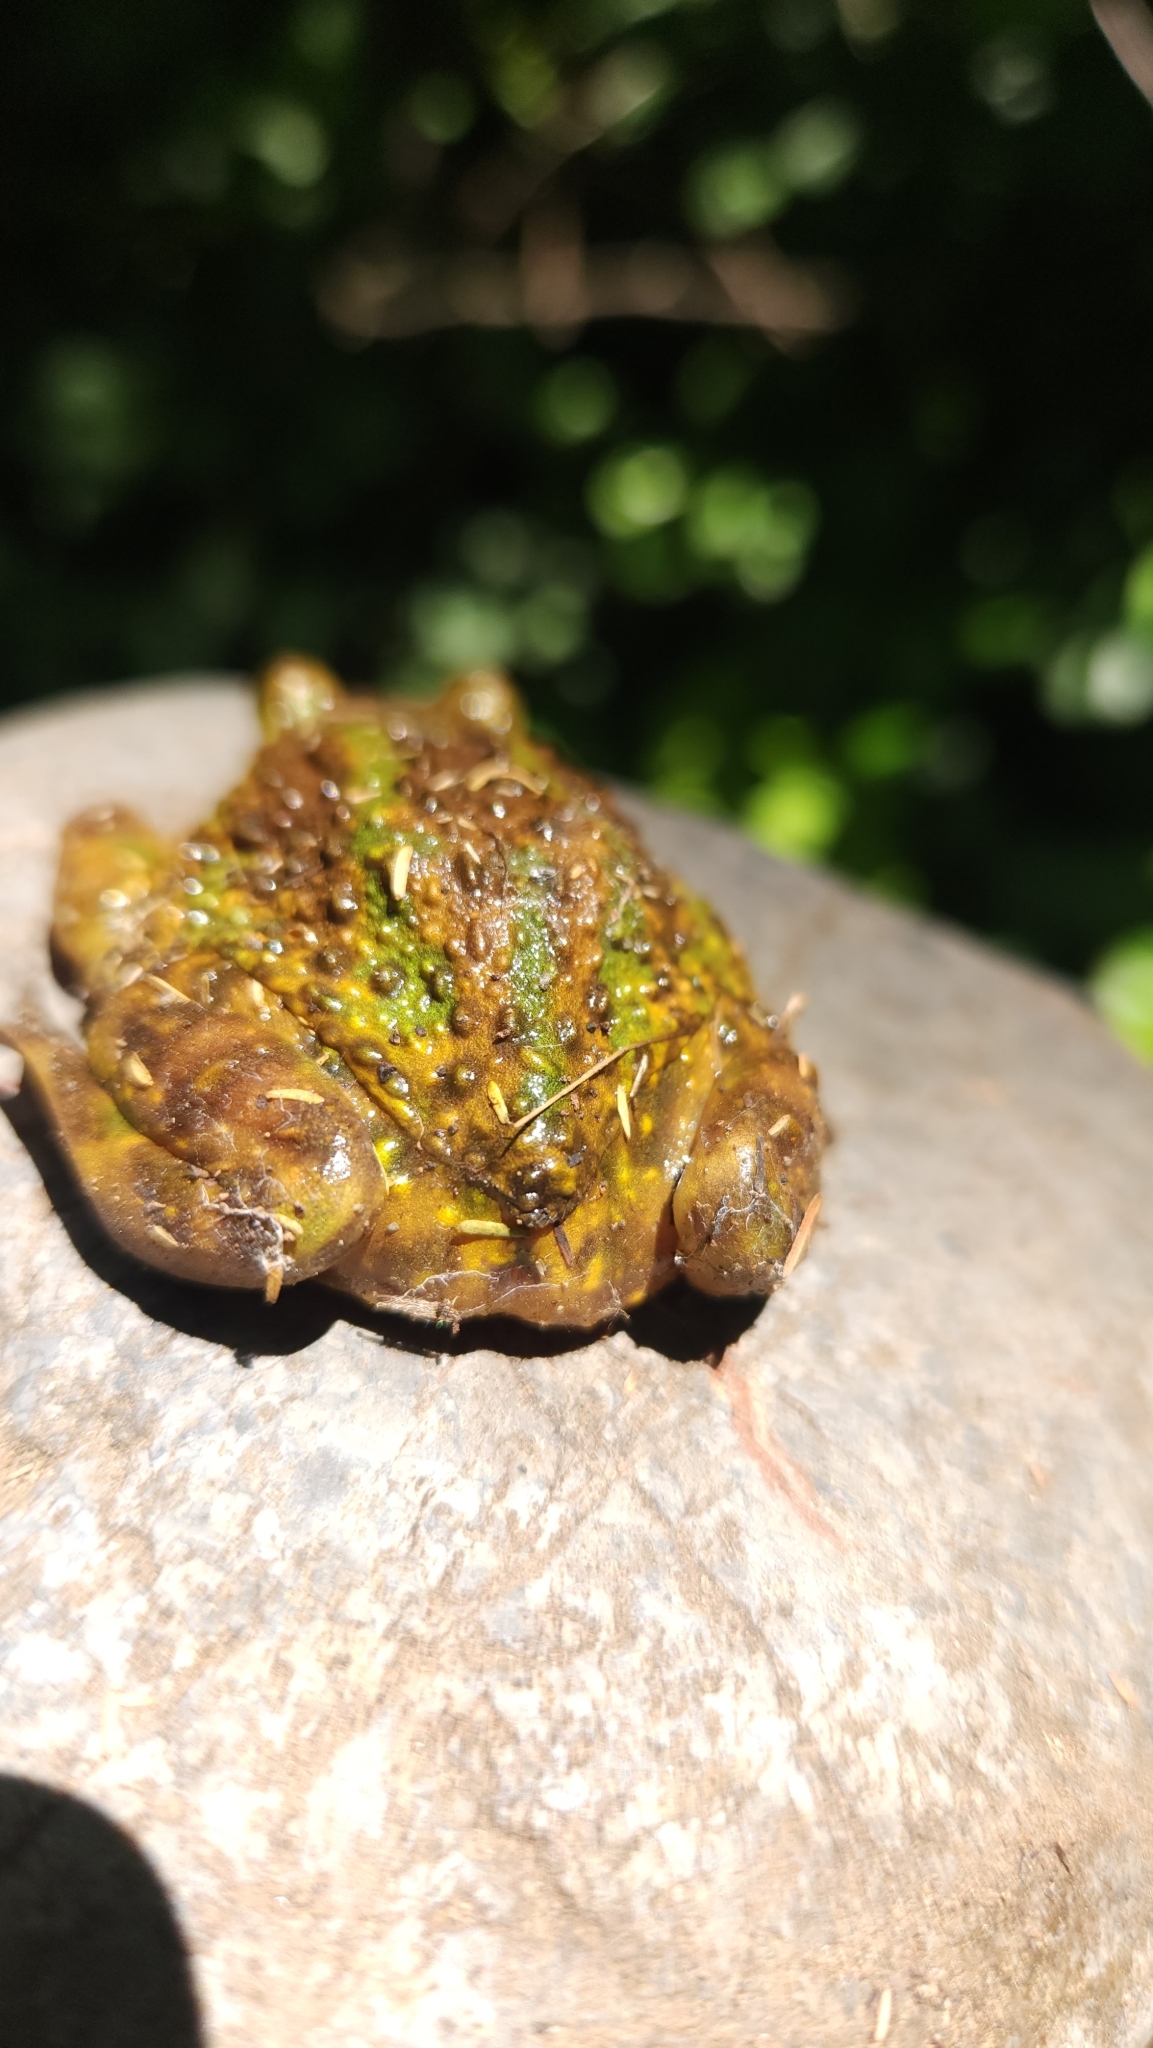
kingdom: Animalia
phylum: Chordata
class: Amphibia
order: Anura
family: Calyptocephalellidae
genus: Calyptocephalella
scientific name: Calyptocephalella gayi
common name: Chilean toad
